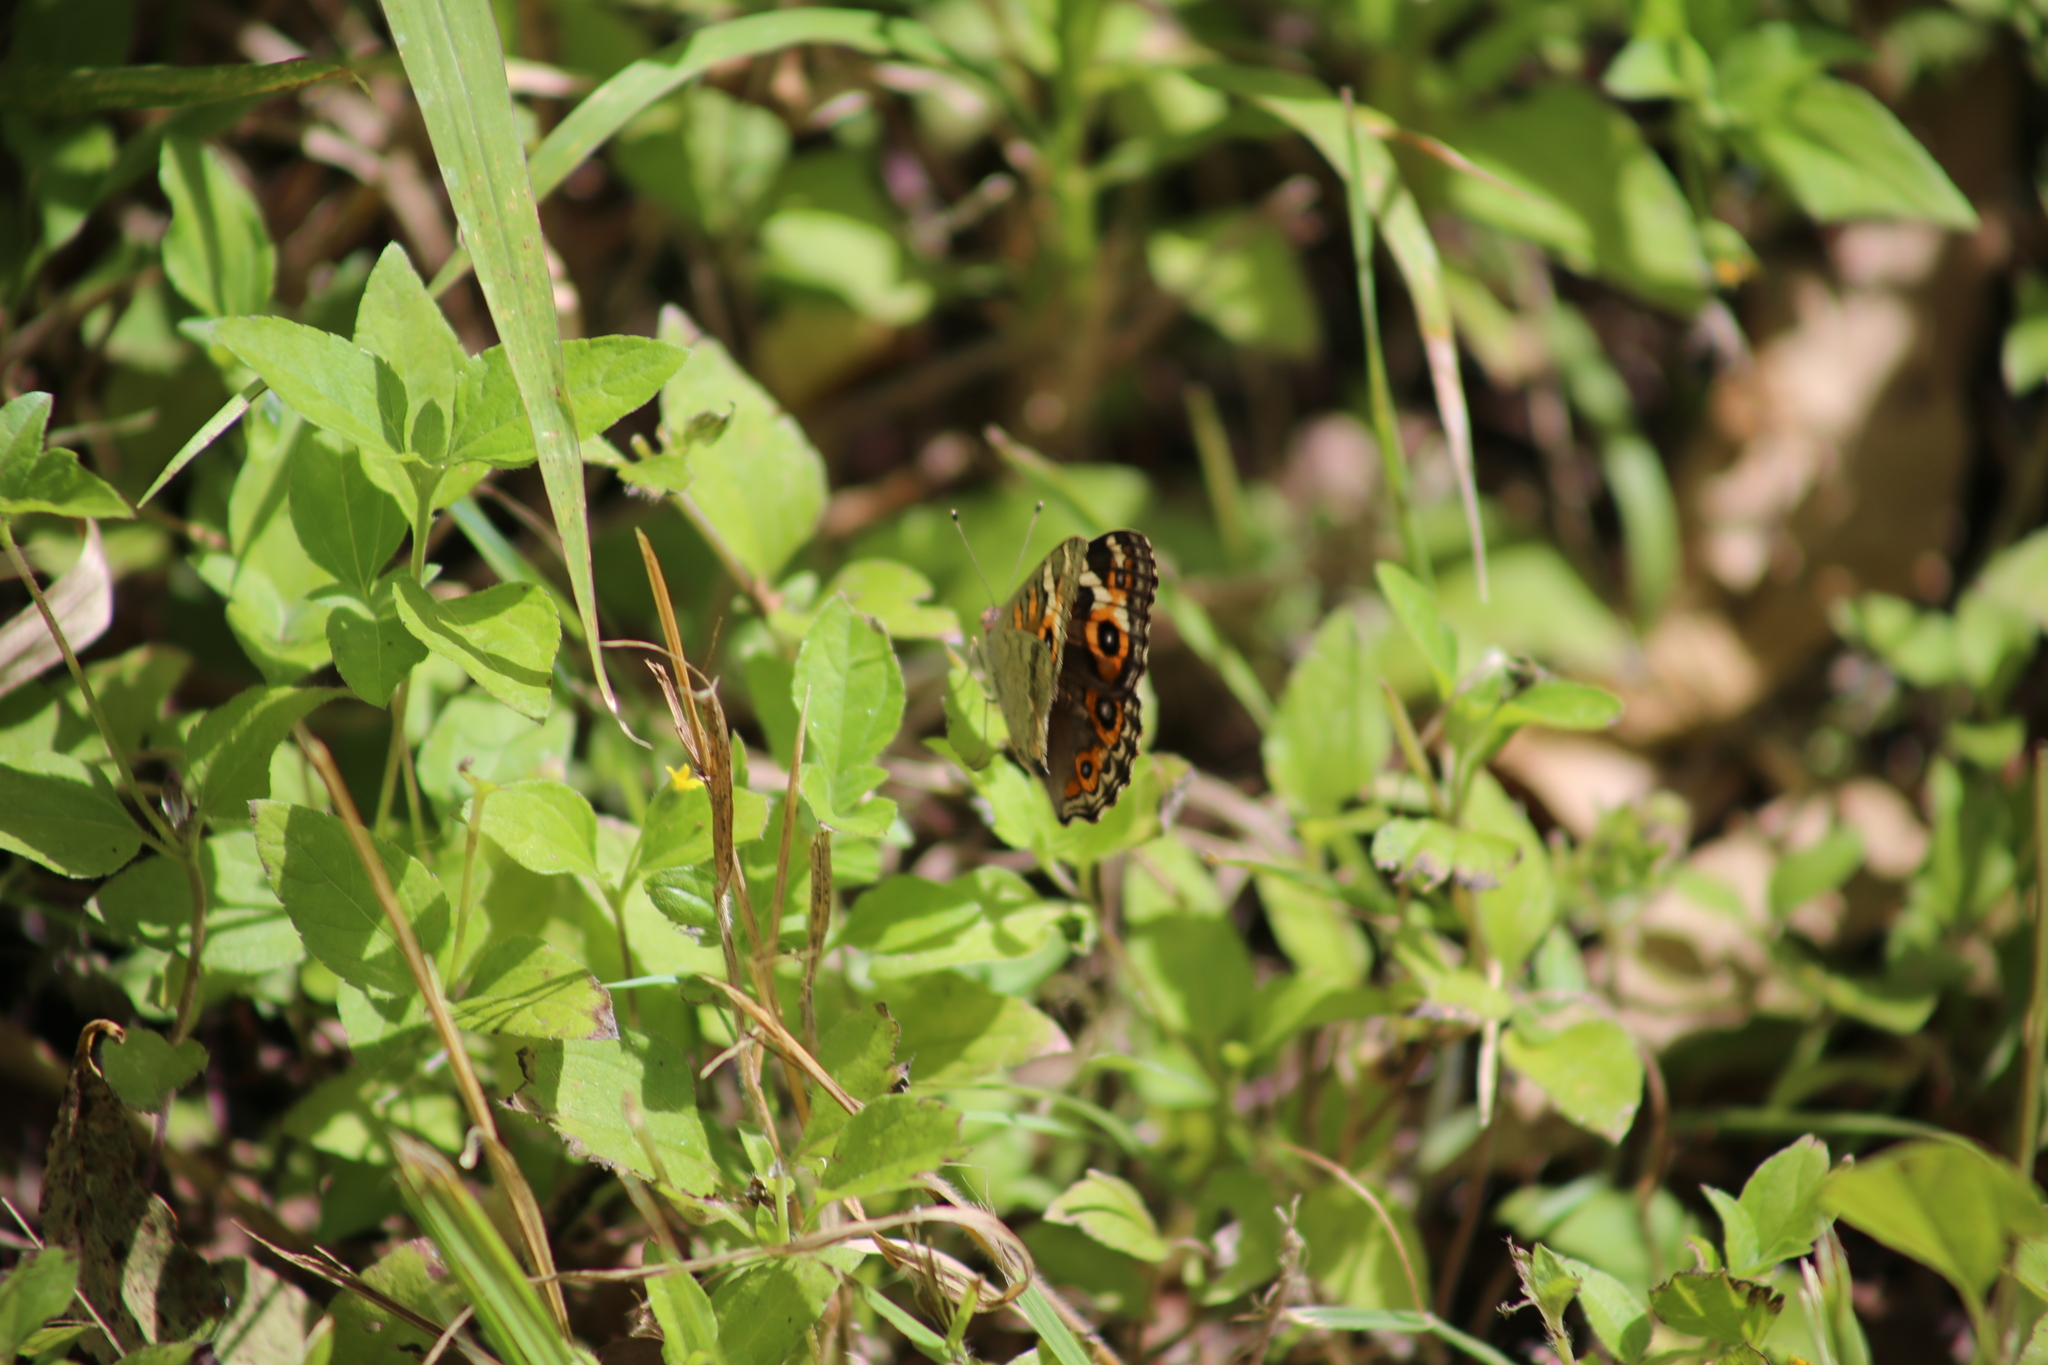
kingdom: Animalia
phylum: Arthropoda
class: Insecta
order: Lepidoptera
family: Nymphalidae
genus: Junonia
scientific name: Junonia villida
